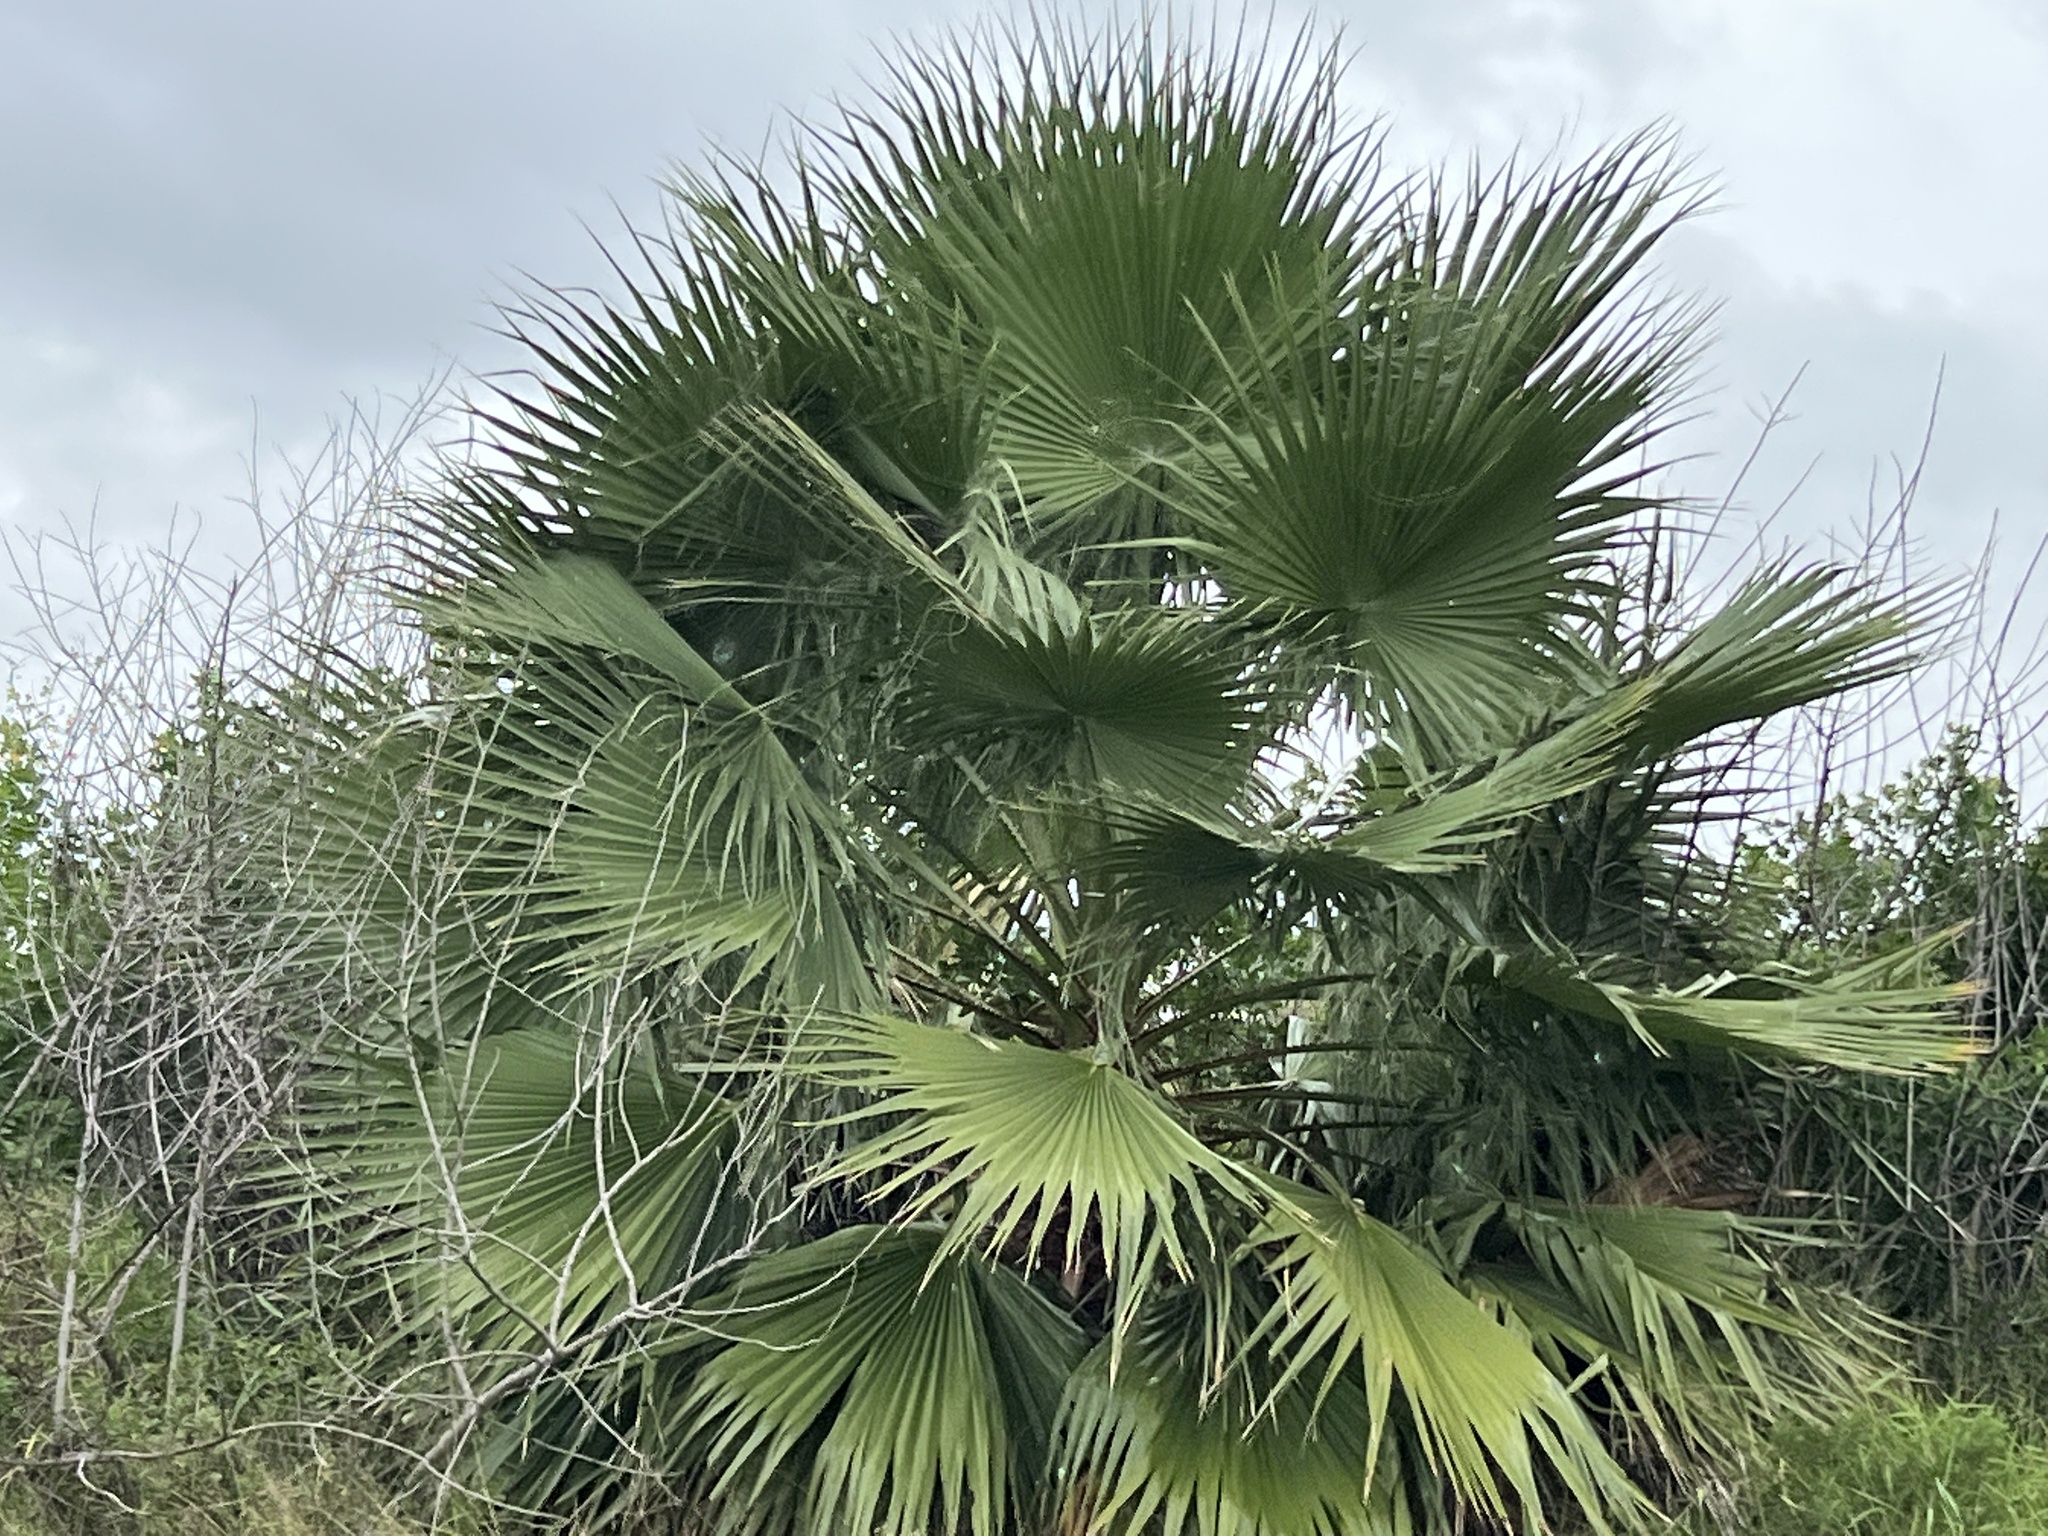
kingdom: Plantae
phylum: Tracheophyta
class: Liliopsida
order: Arecales
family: Arecaceae
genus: Washingtonia
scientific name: Washingtonia robusta
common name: Mexican fan palm
